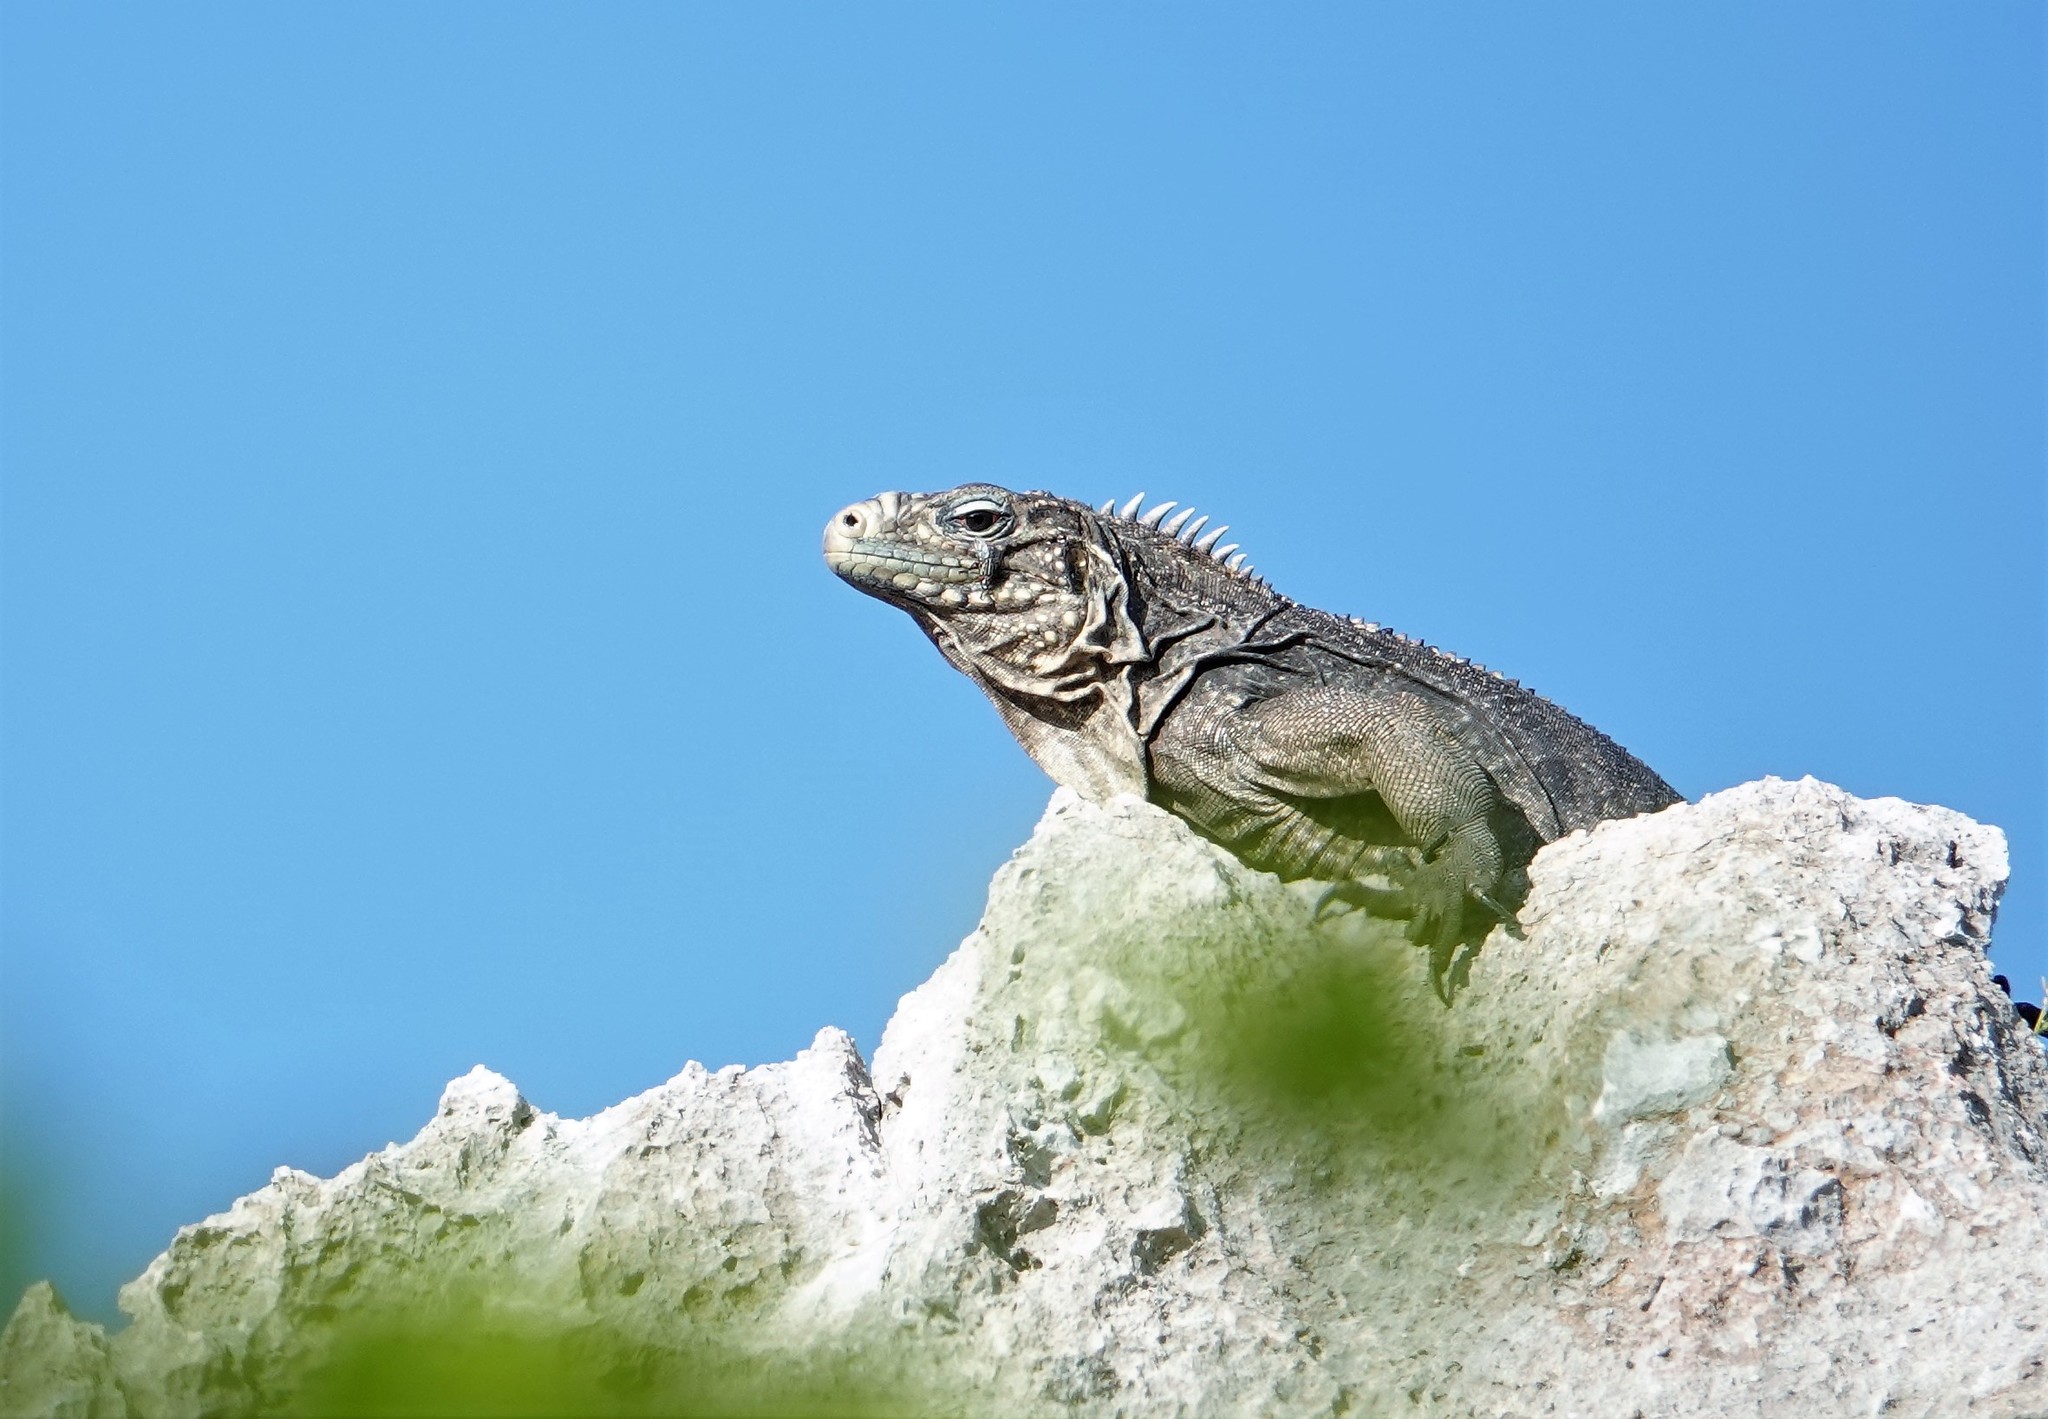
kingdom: Animalia
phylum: Chordata
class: Squamata
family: Iguanidae
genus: Cyclura
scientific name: Cyclura nubila
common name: Cayman islands ground iguana
